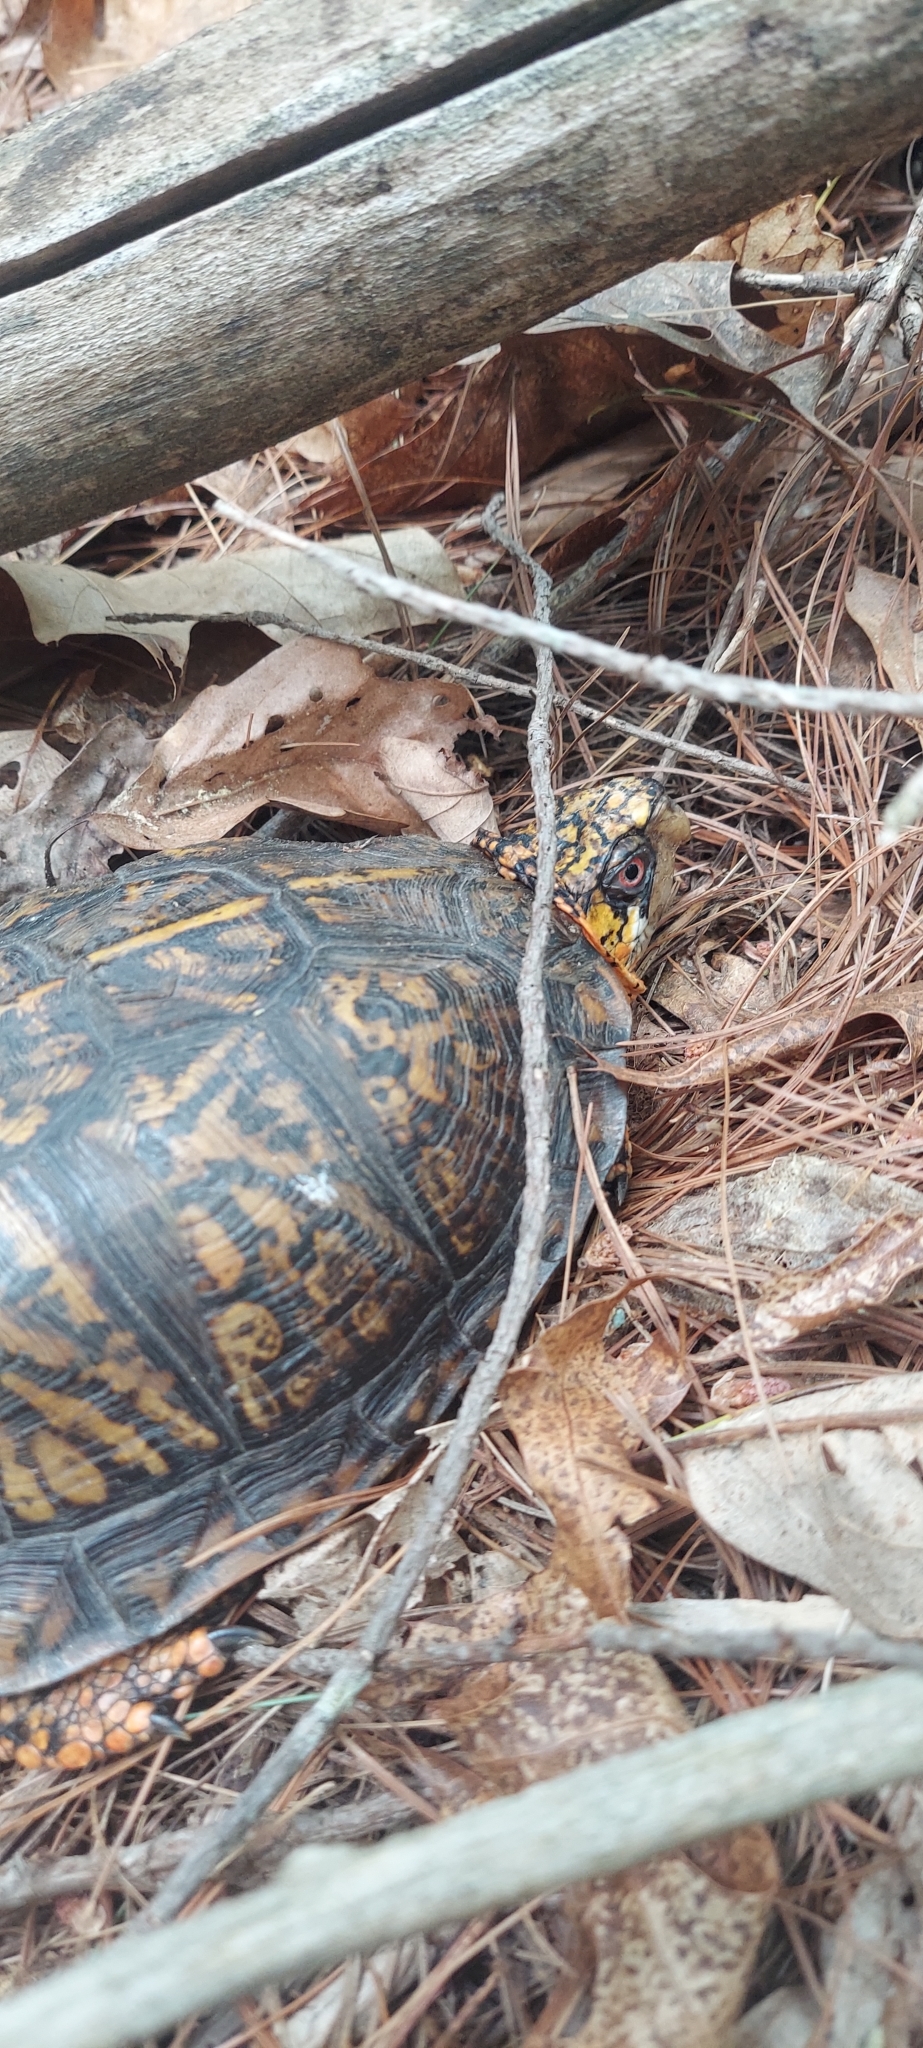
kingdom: Animalia
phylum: Chordata
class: Testudines
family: Emydidae
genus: Terrapene
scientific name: Terrapene carolina
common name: Common box turtle
